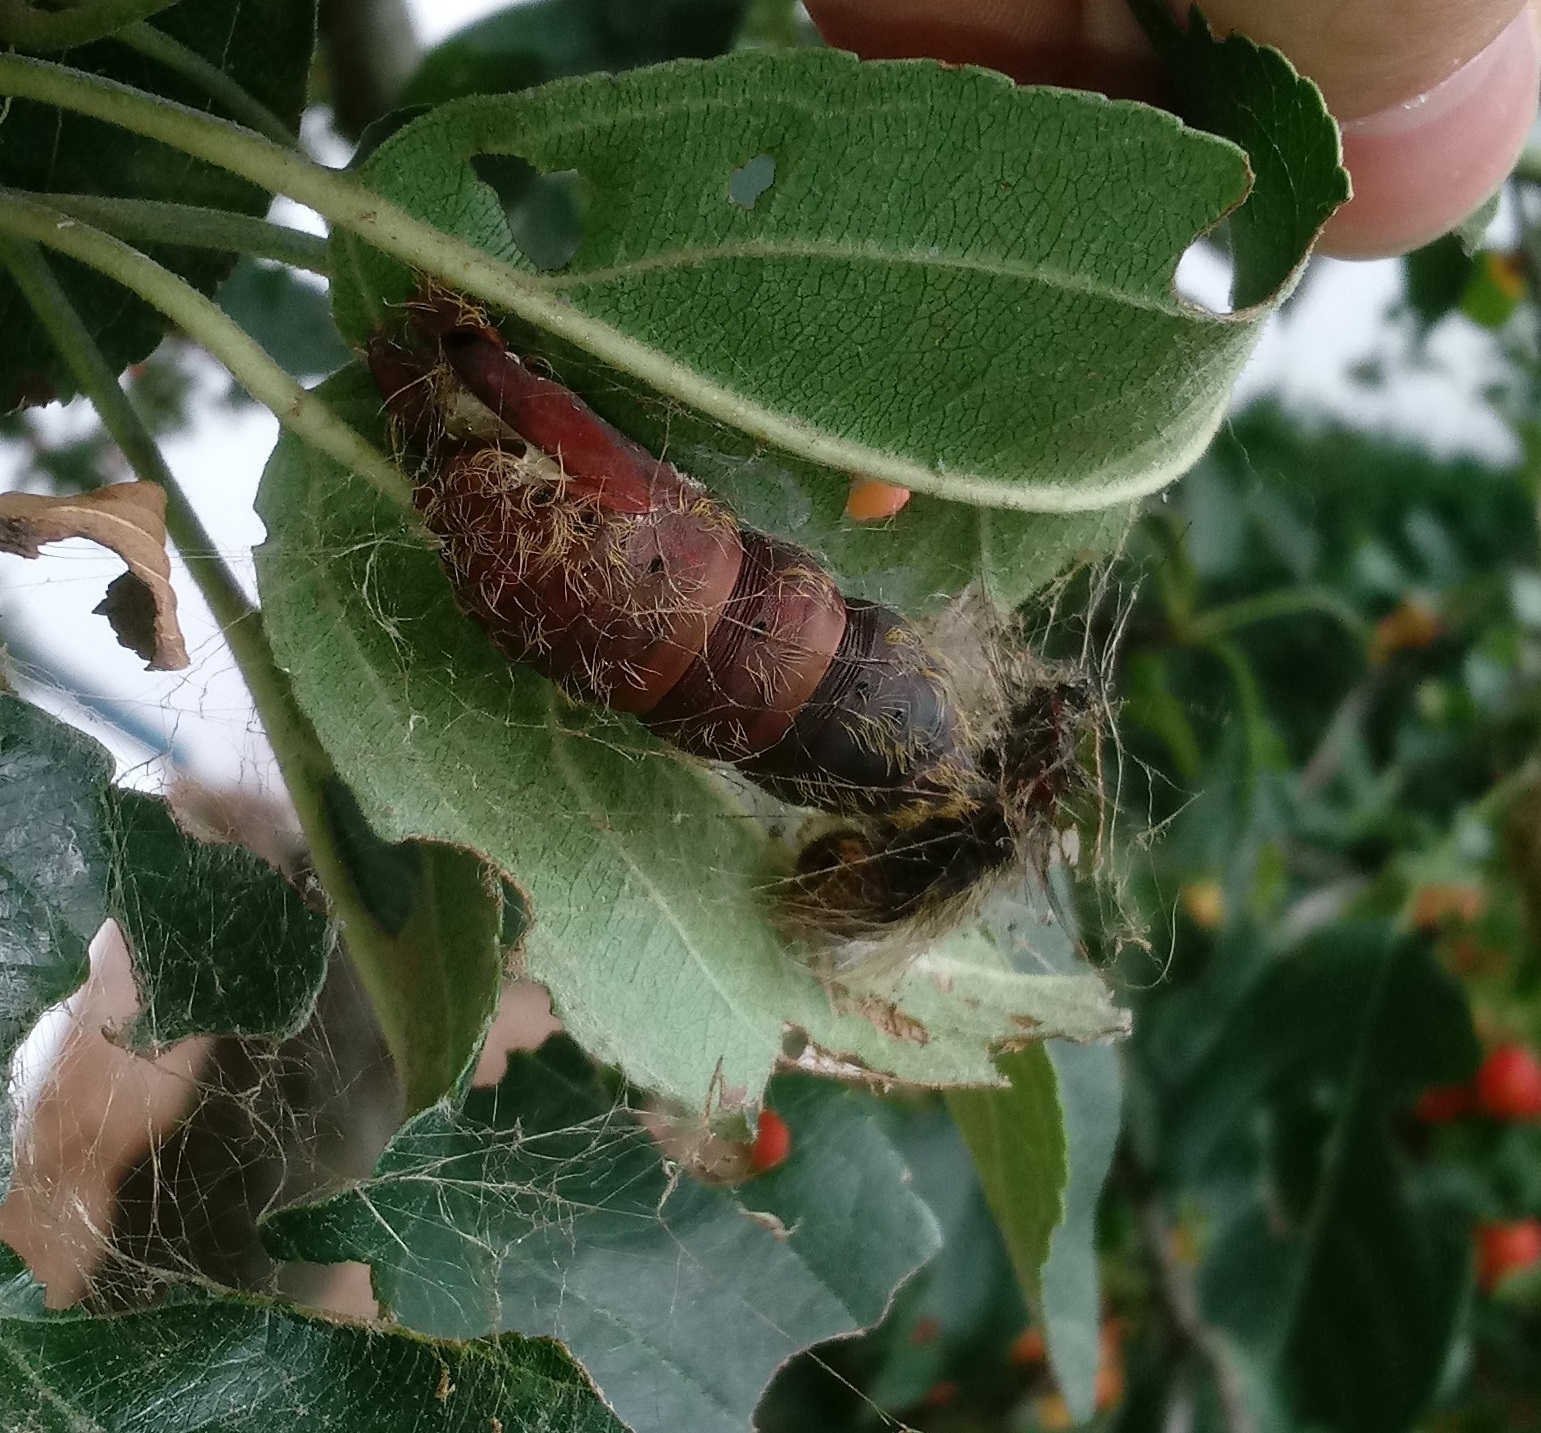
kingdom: Animalia
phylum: Arthropoda
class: Insecta
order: Lepidoptera
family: Erebidae
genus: Lymantria
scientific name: Lymantria dispar
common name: Gypsy moth
